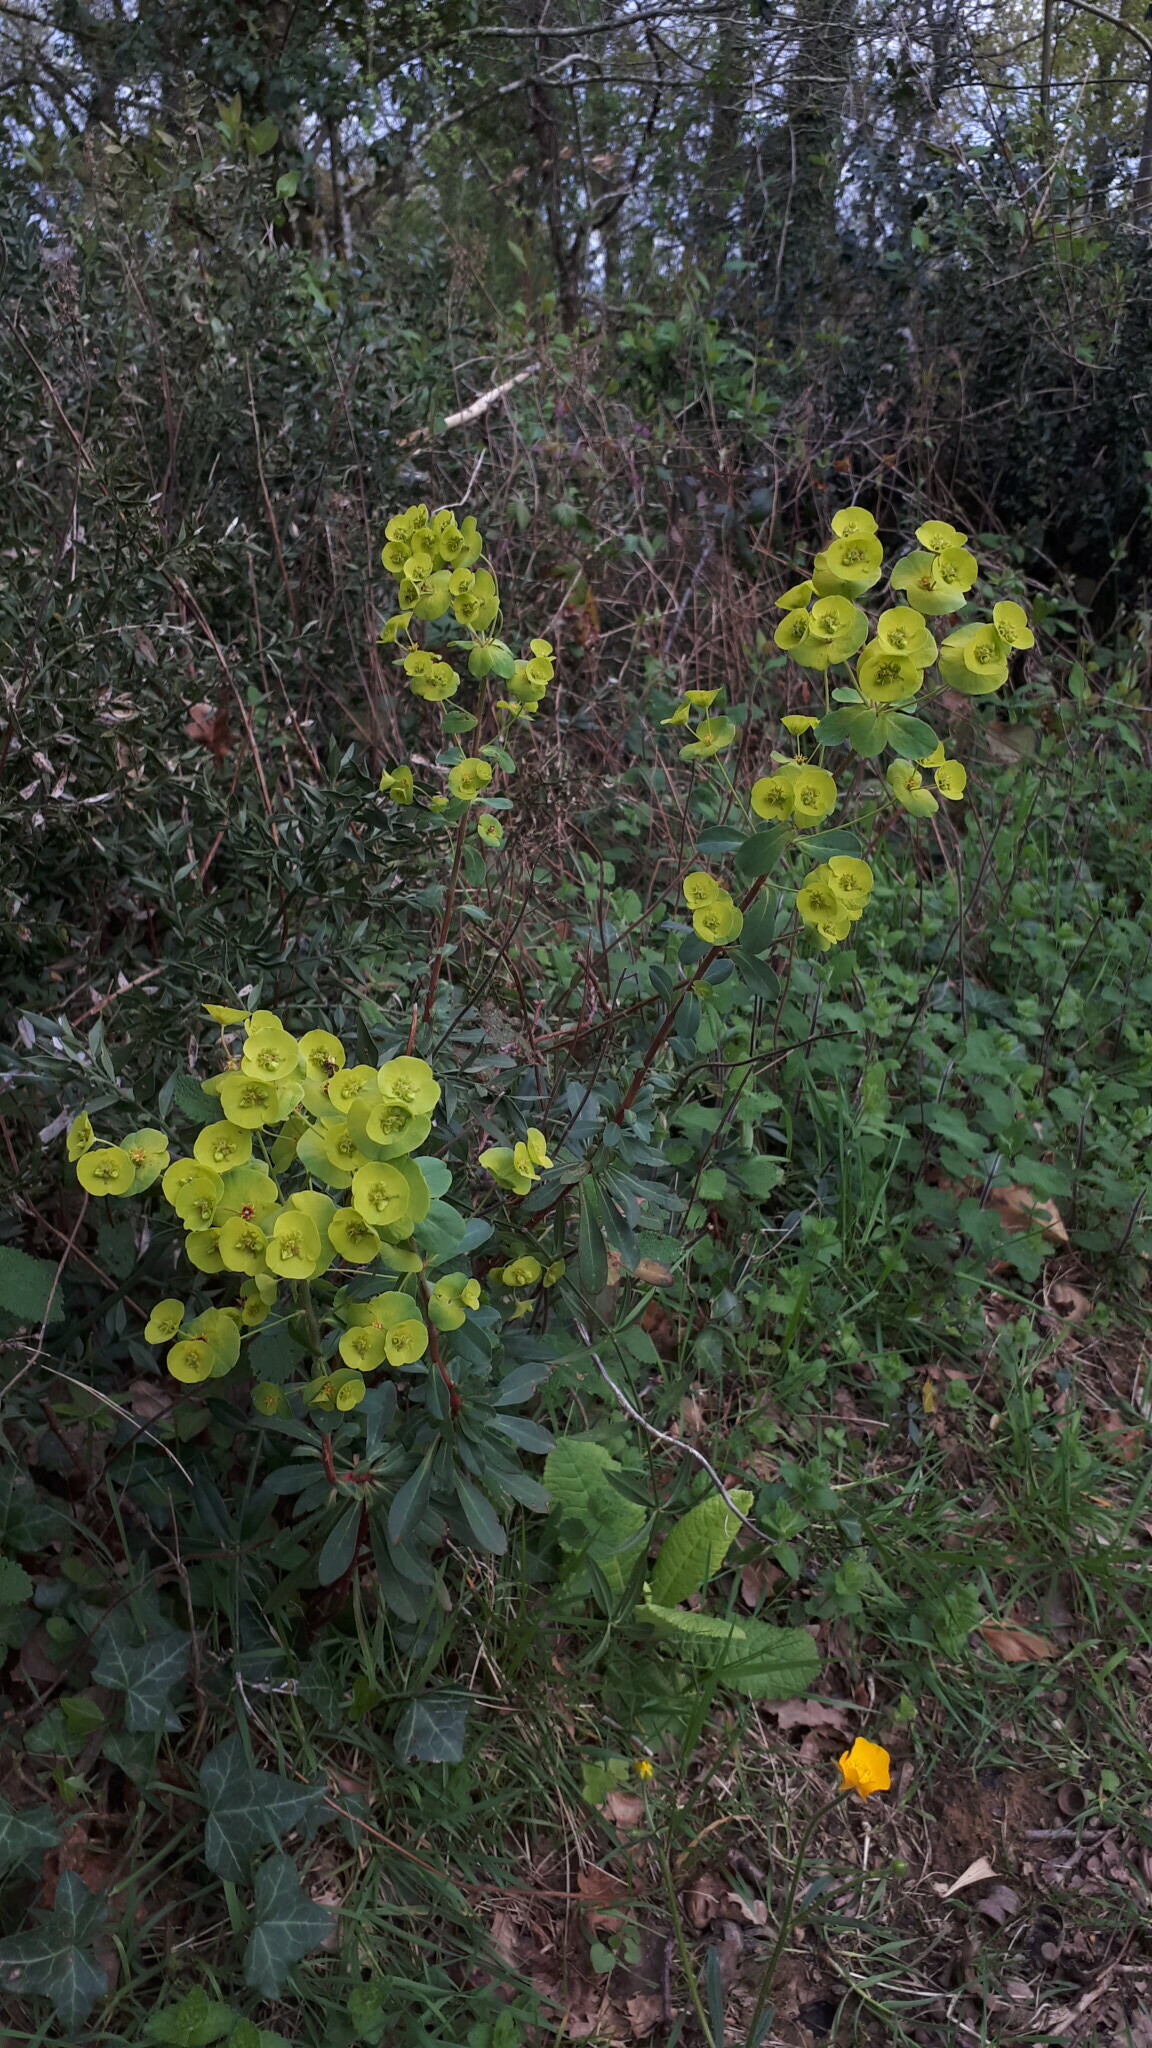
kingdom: Plantae
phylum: Tracheophyta
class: Magnoliopsida
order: Malpighiales
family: Euphorbiaceae
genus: Euphorbia
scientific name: Euphorbia amygdaloides
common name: Wood spurge
